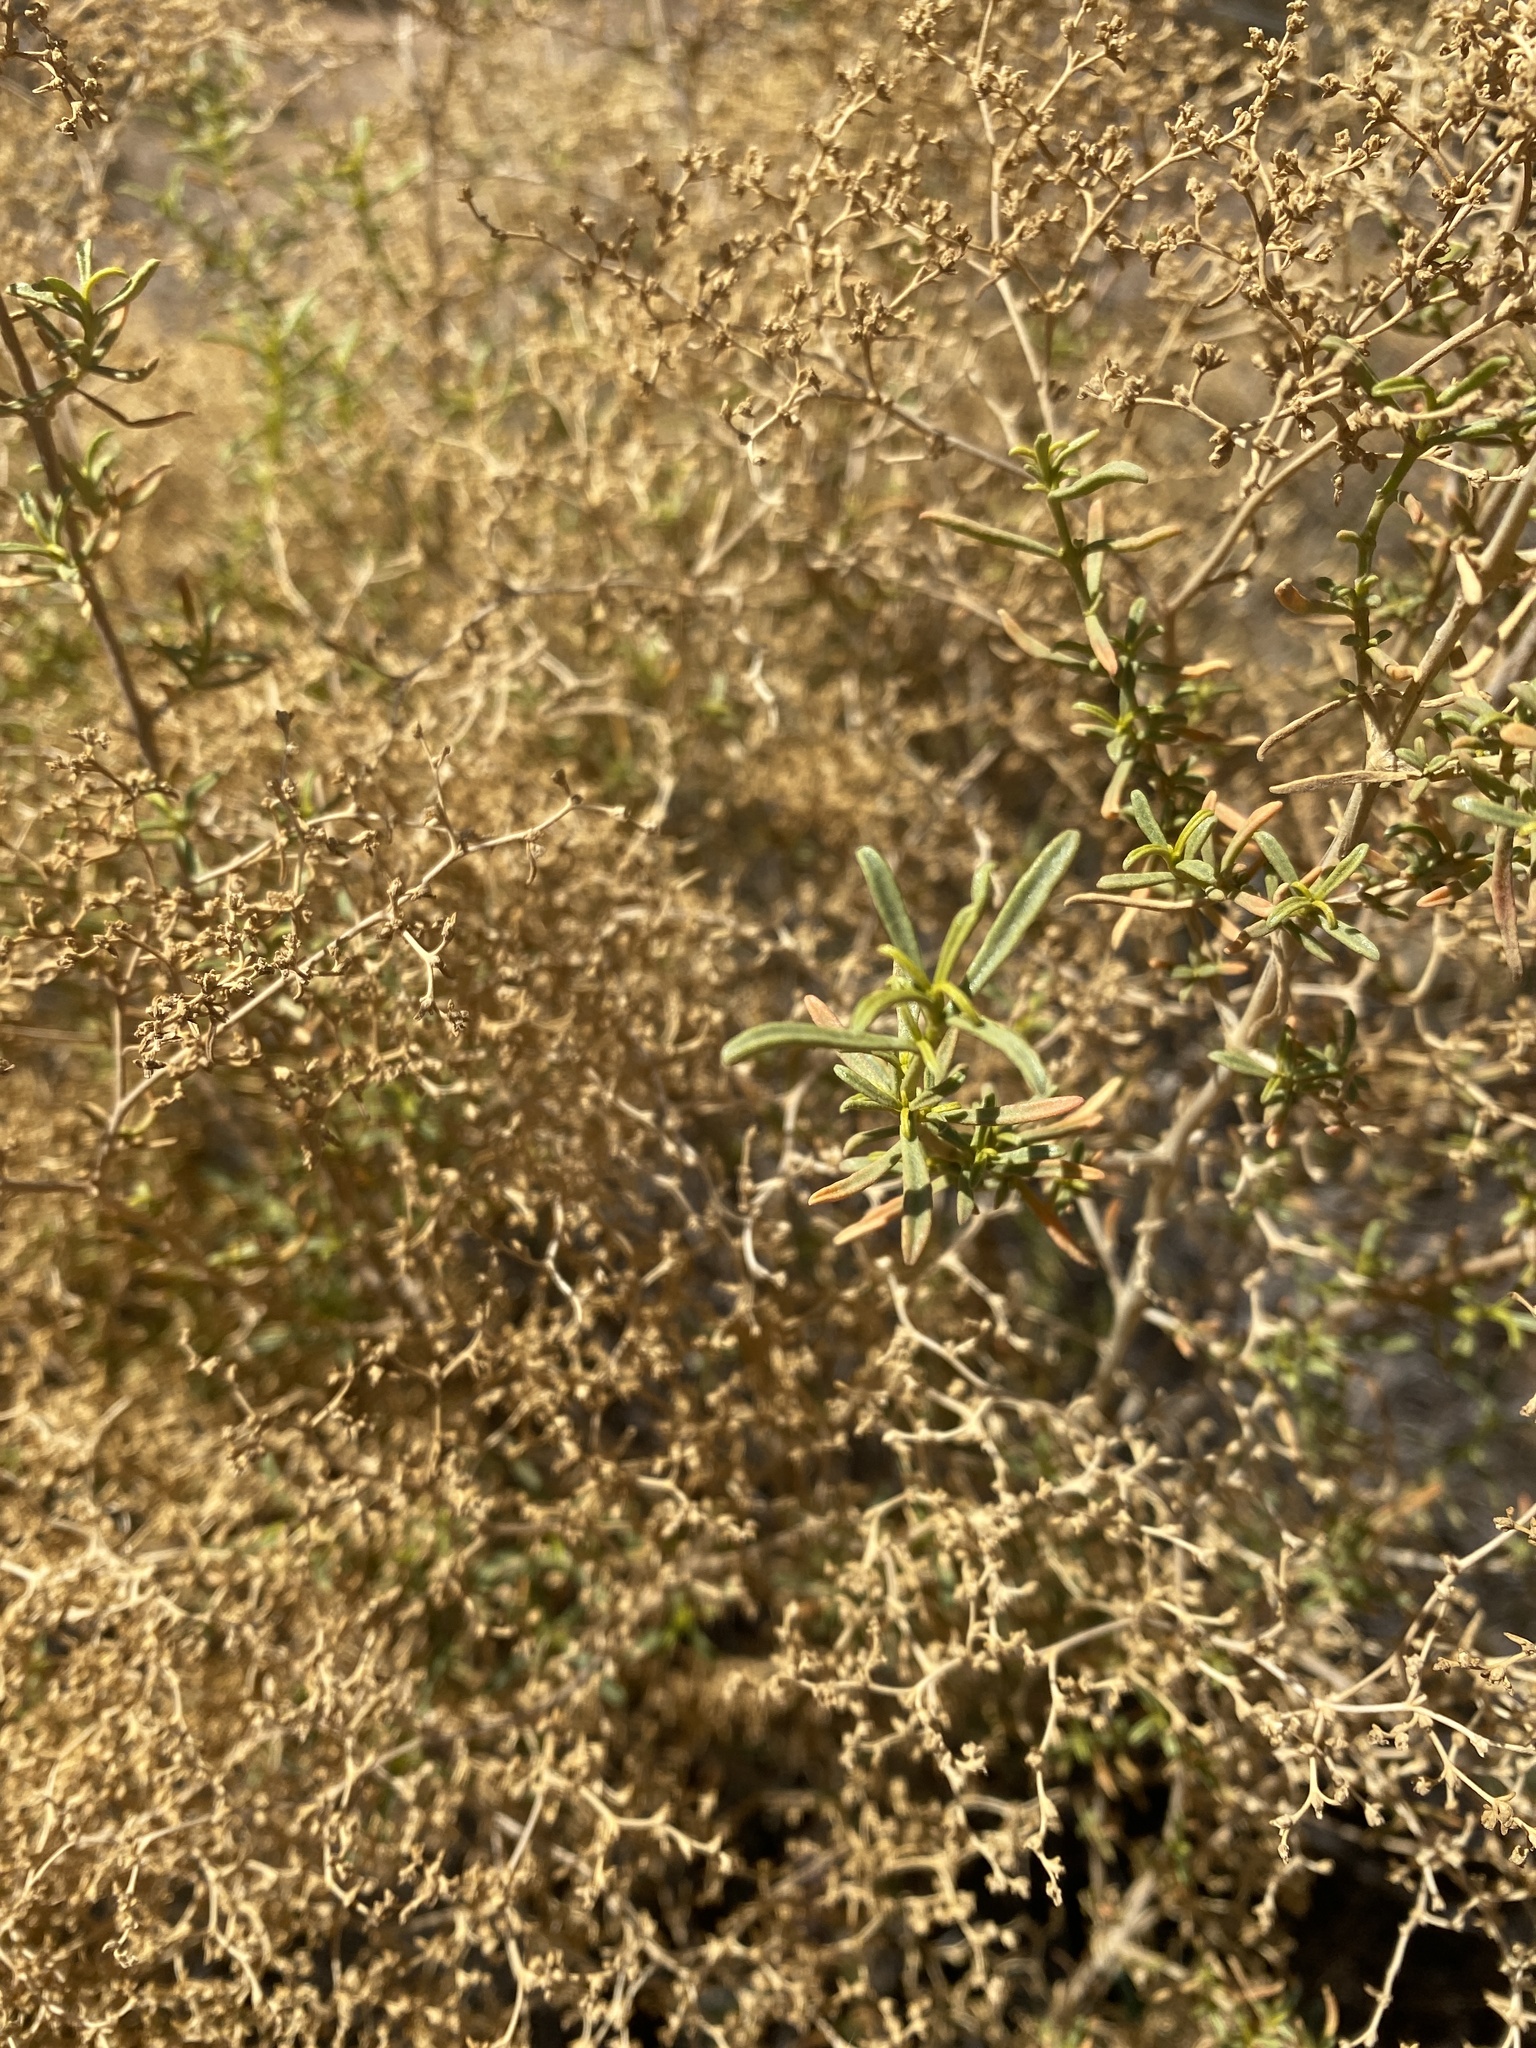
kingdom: Plantae
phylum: Tracheophyta
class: Magnoliopsida
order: Caryophyllales
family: Aizoaceae
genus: Aizoon
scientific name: Aizoon africanum
